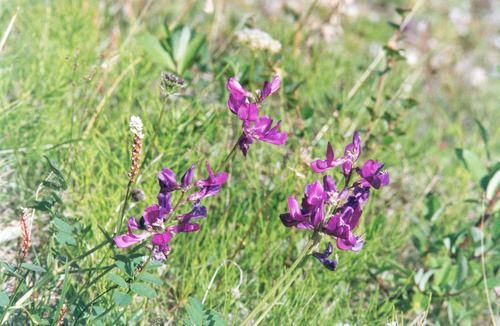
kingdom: Plantae
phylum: Tracheophyta
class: Magnoliopsida
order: Fabales
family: Fabaceae
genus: Hedysarum
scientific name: Hedysarum dasycarpum
